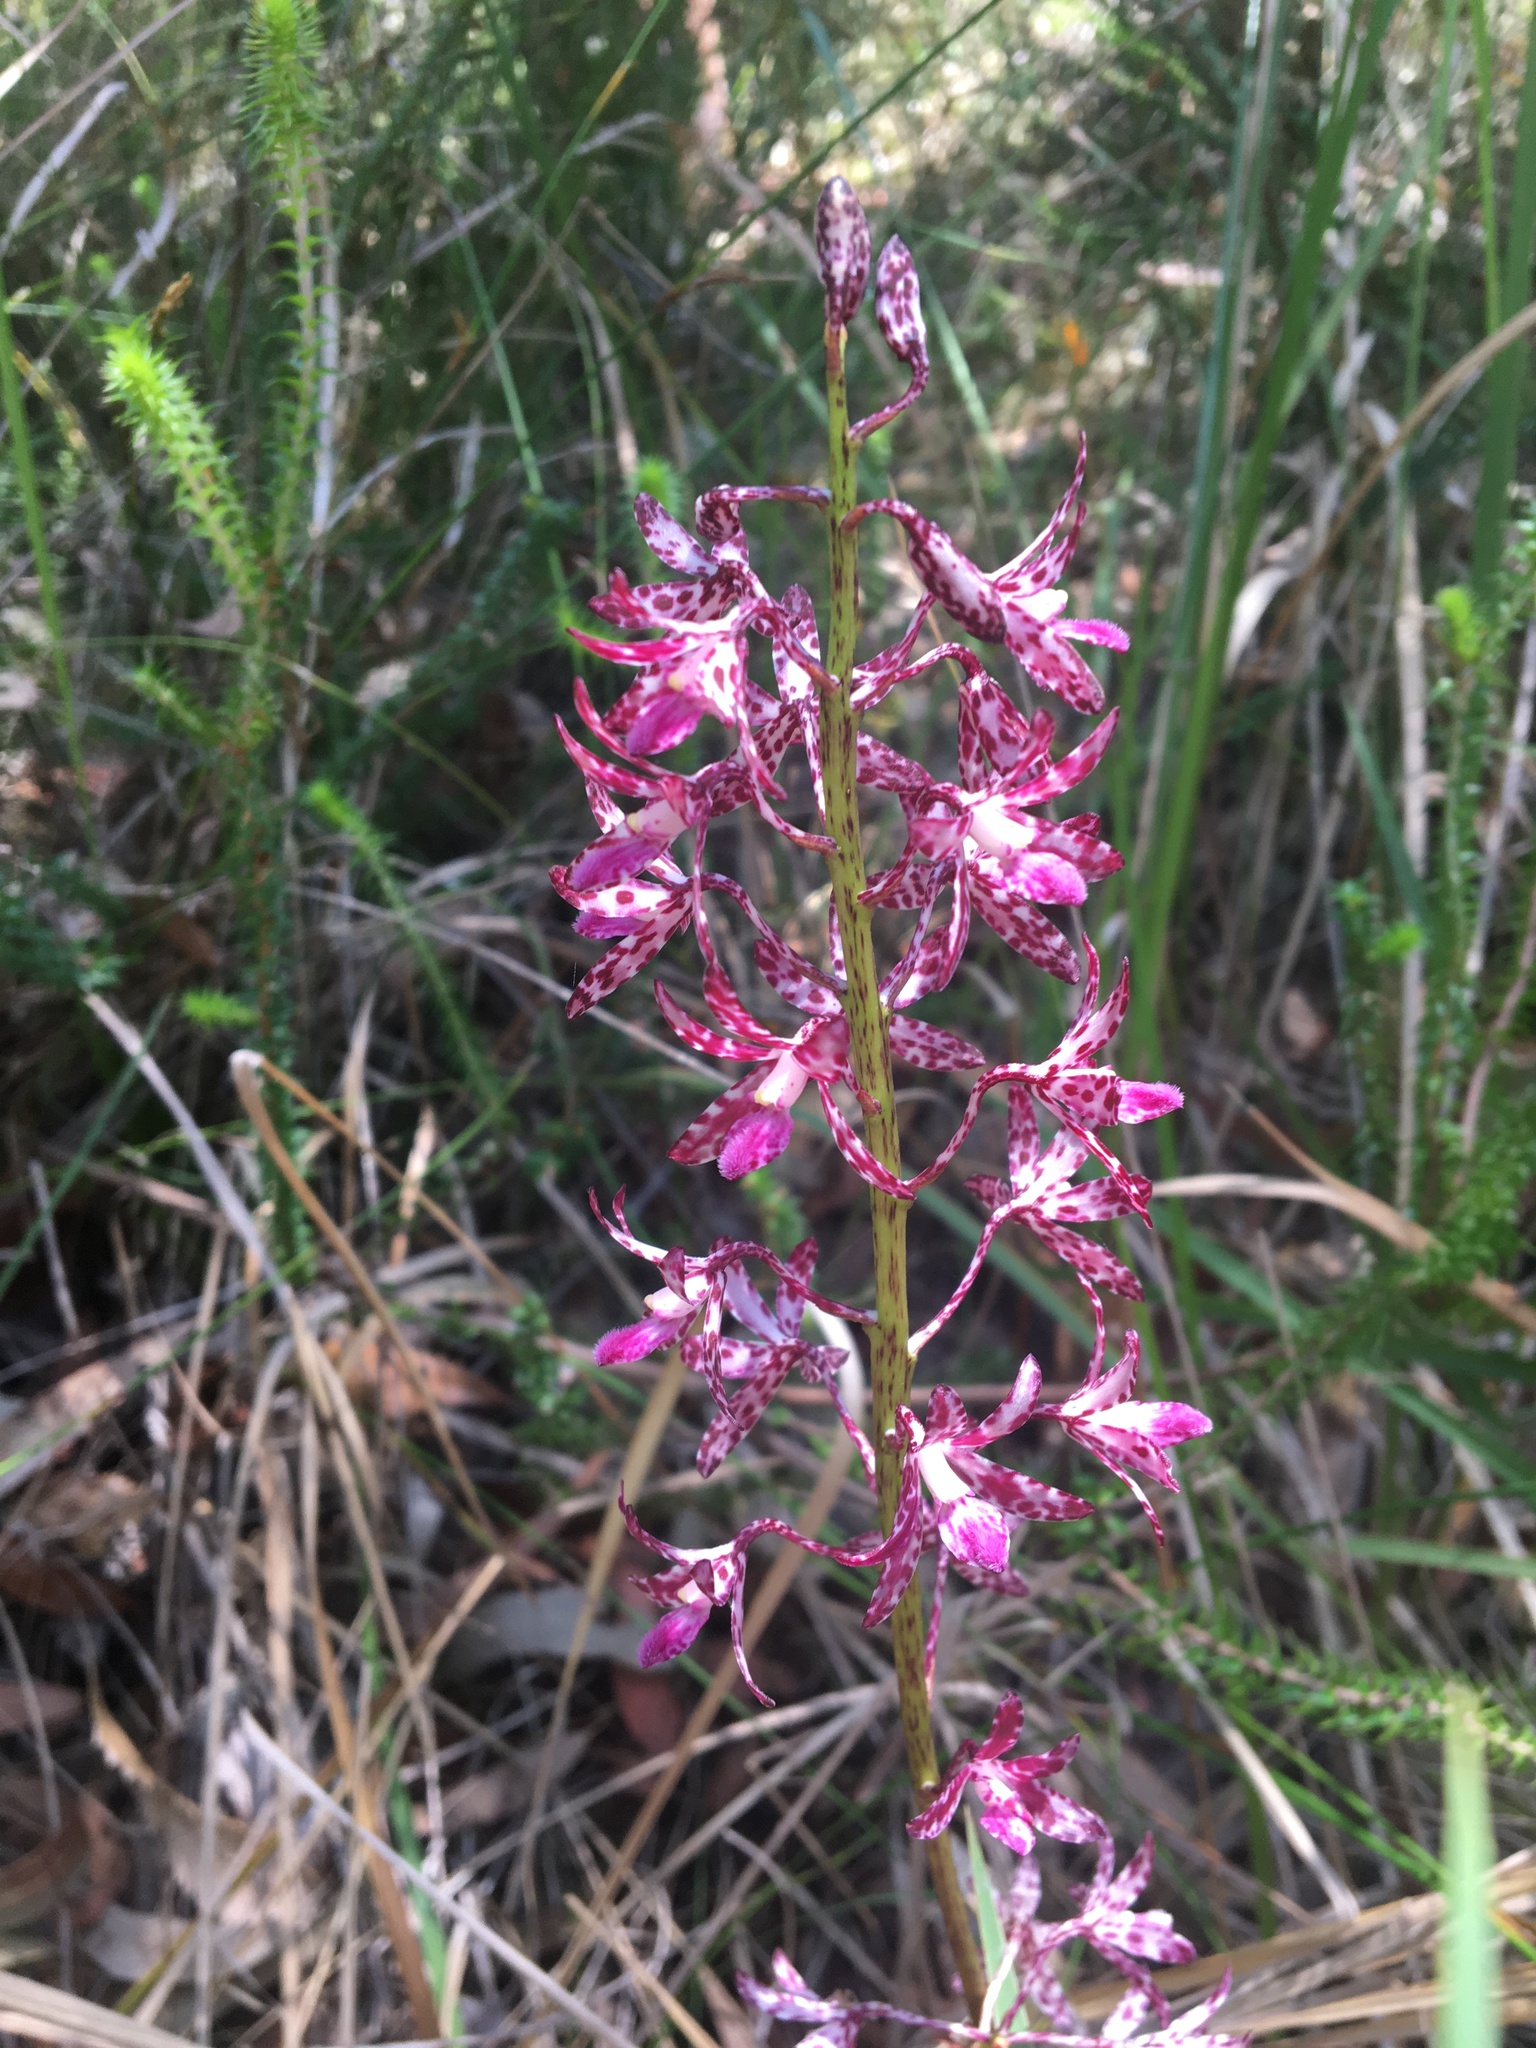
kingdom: Plantae
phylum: Tracheophyta
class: Liliopsida
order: Asparagales
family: Orchidaceae
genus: Dipodium
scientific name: Dipodium variegatum
